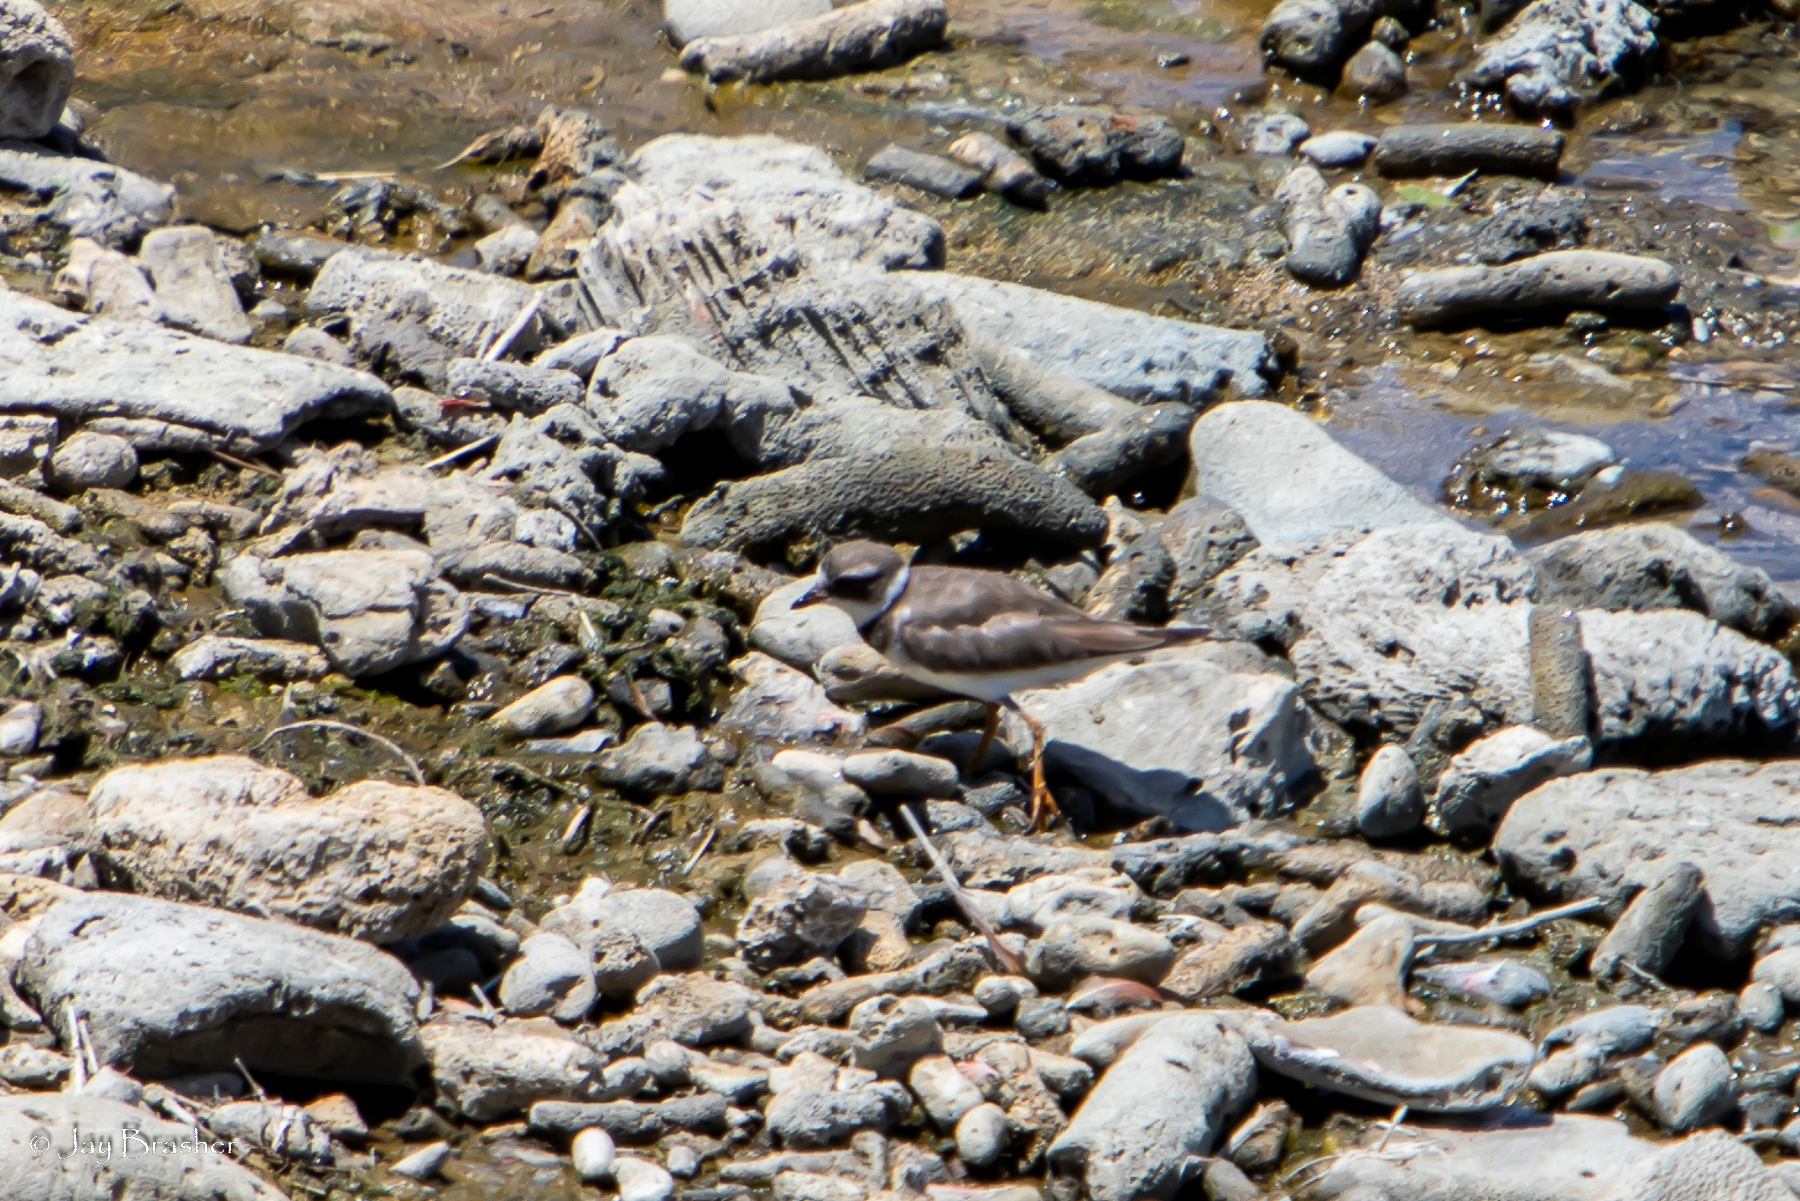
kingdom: Animalia
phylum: Chordata
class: Aves
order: Charadriiformes
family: Charadriidae
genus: Charadrius
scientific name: Charadrius semipalmatus
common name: Semipalmated plover
